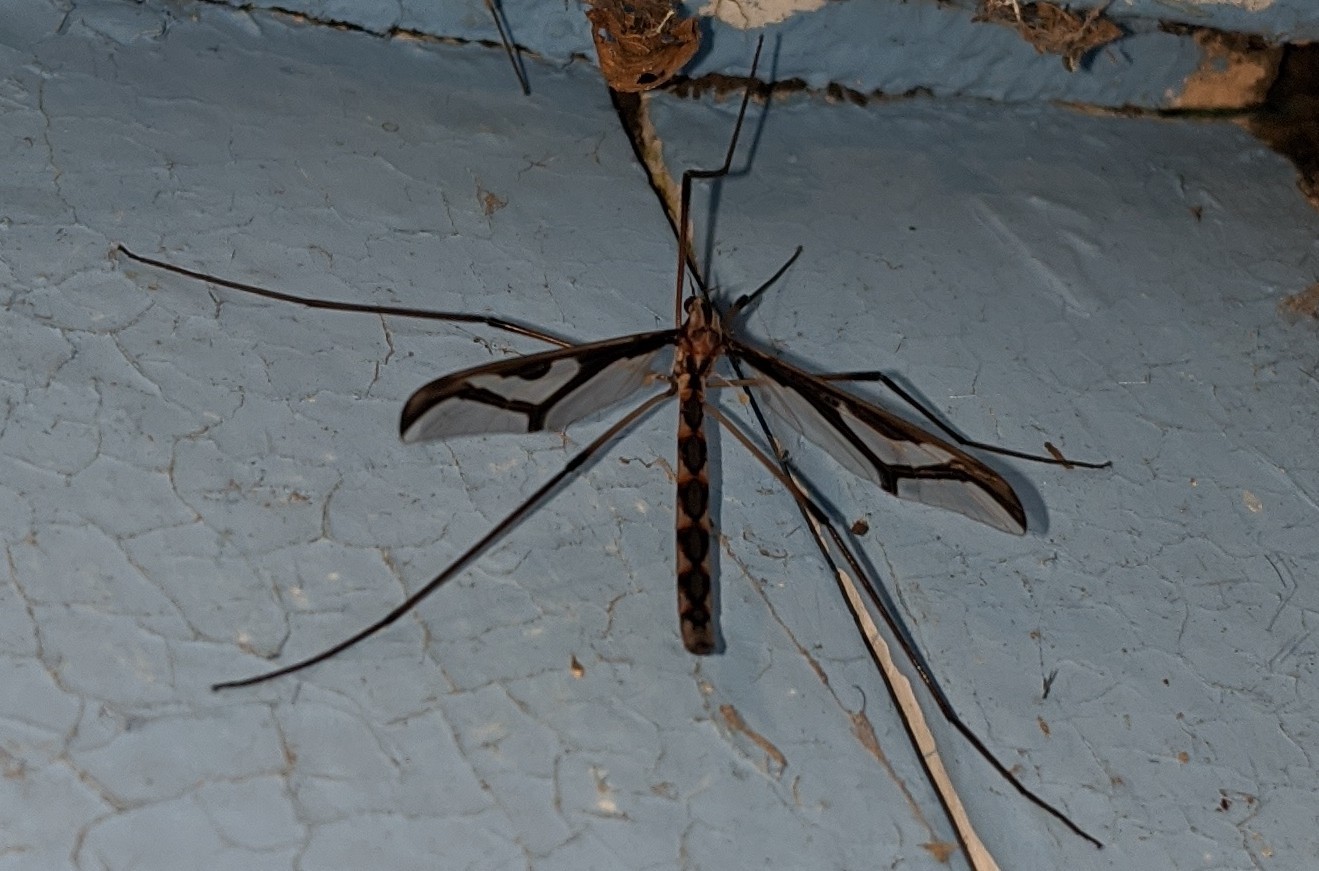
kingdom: Animalia
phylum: Arthropoda
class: Insecta
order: Diptera
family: Pediciidae
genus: Pedicia
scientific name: Pedicia albivitta
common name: Giant eastern crane fly
